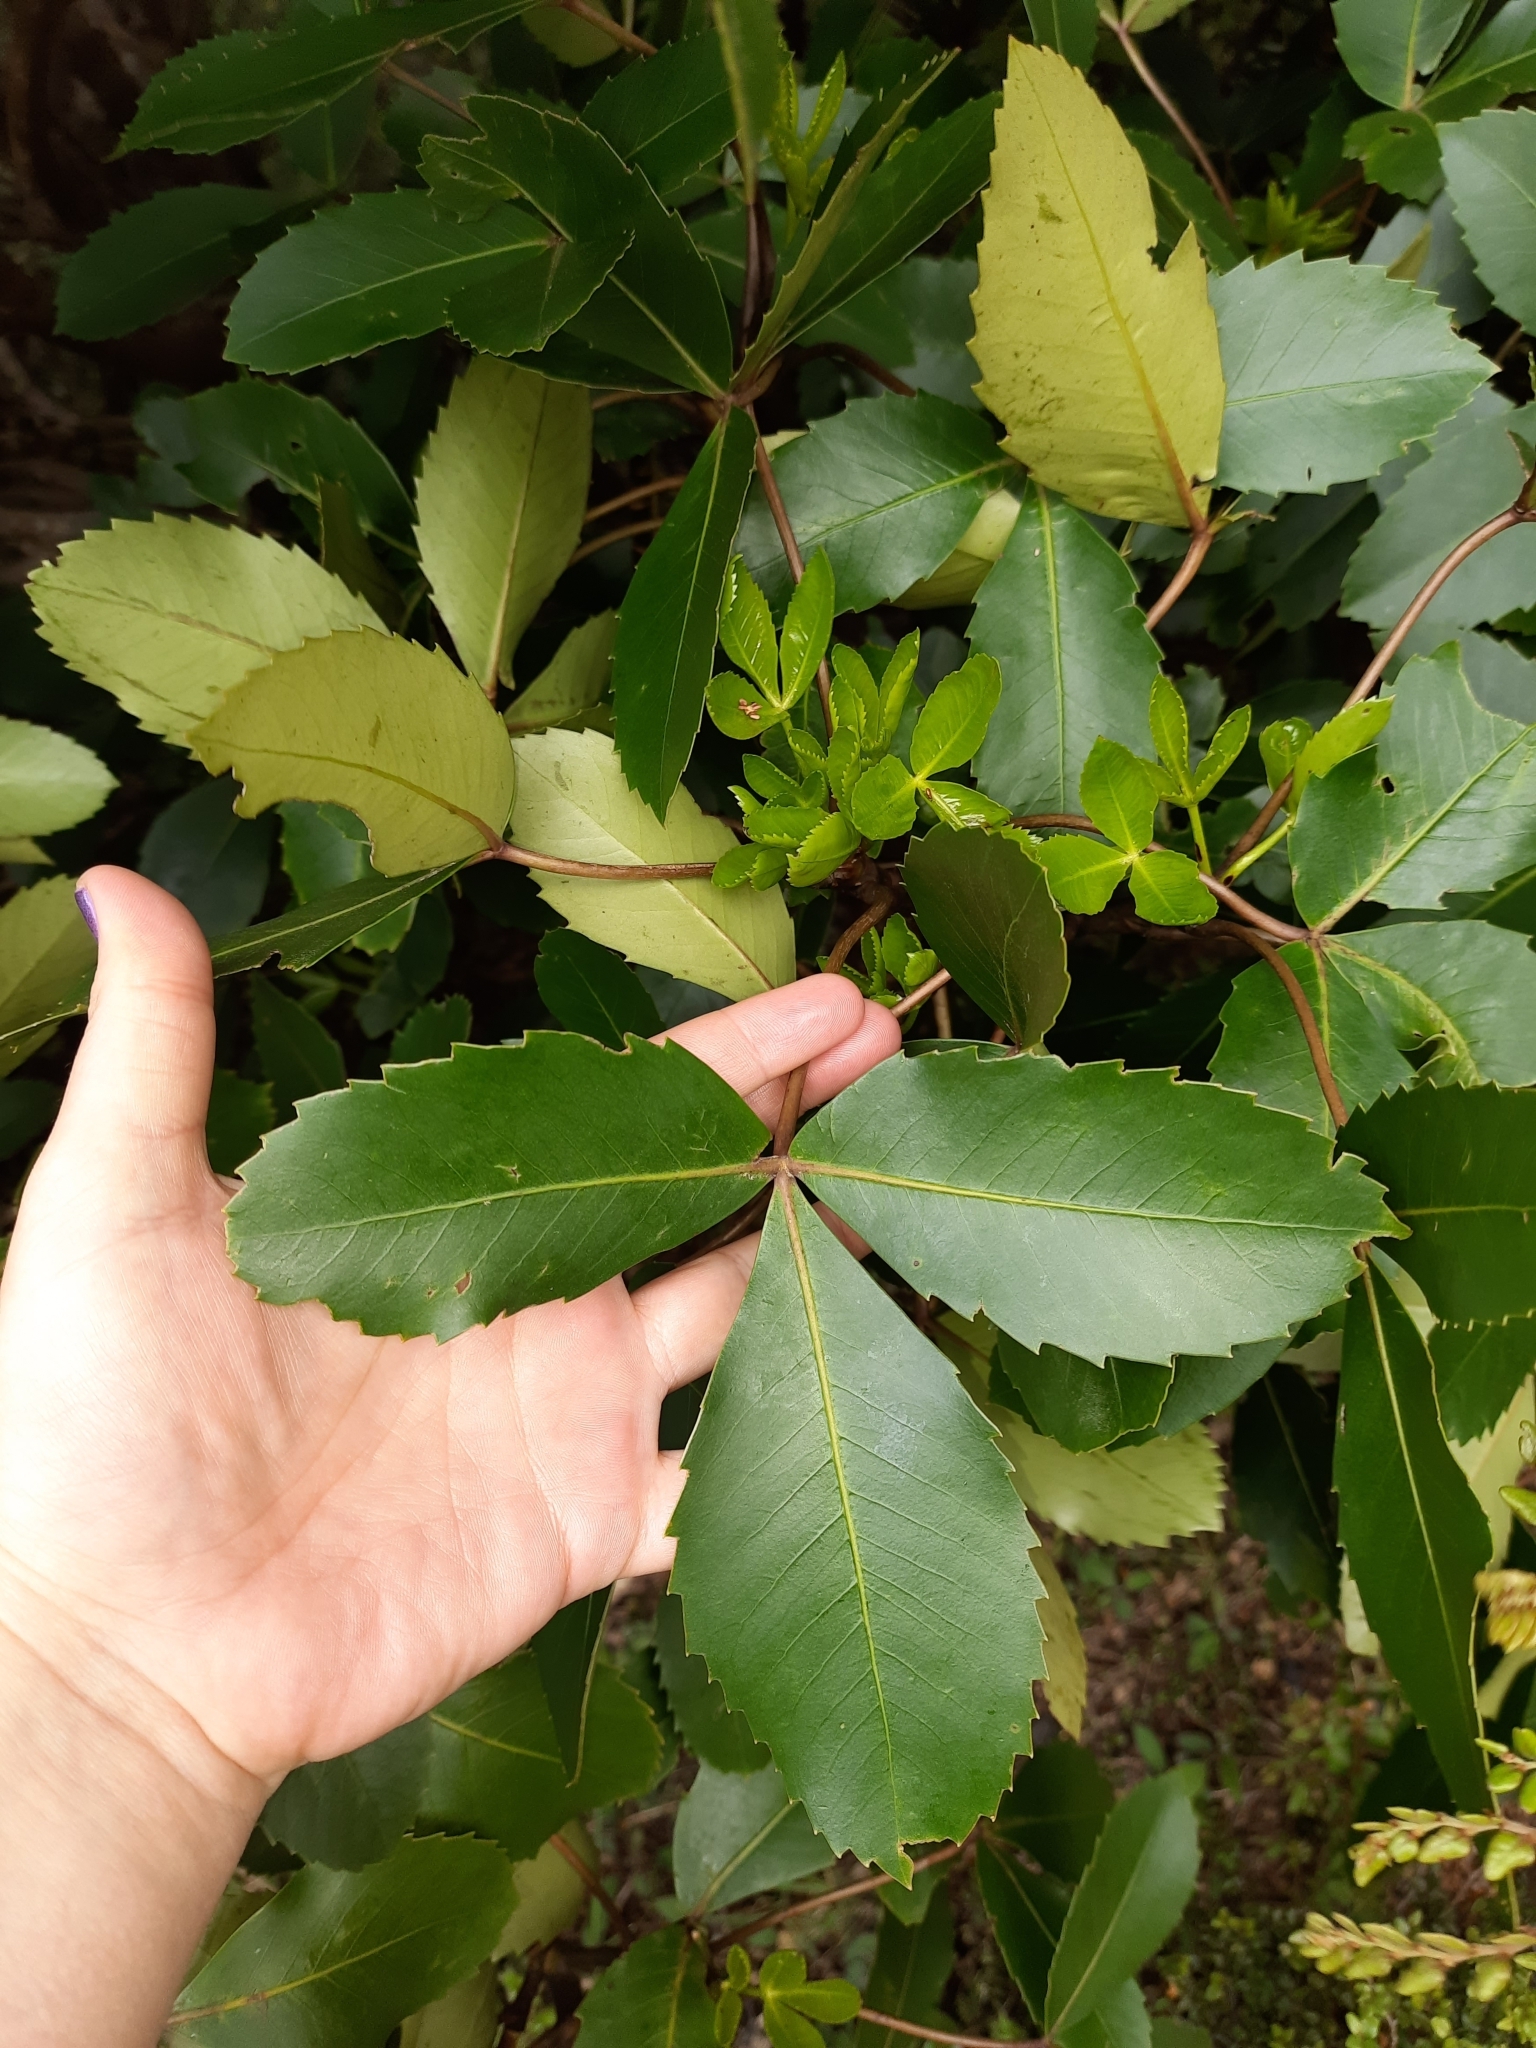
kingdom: Plantae
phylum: Tracheophyta
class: Magnoliopsida
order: Apiales
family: Araliaceae
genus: Neopanax
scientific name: Neopanax colensoi
